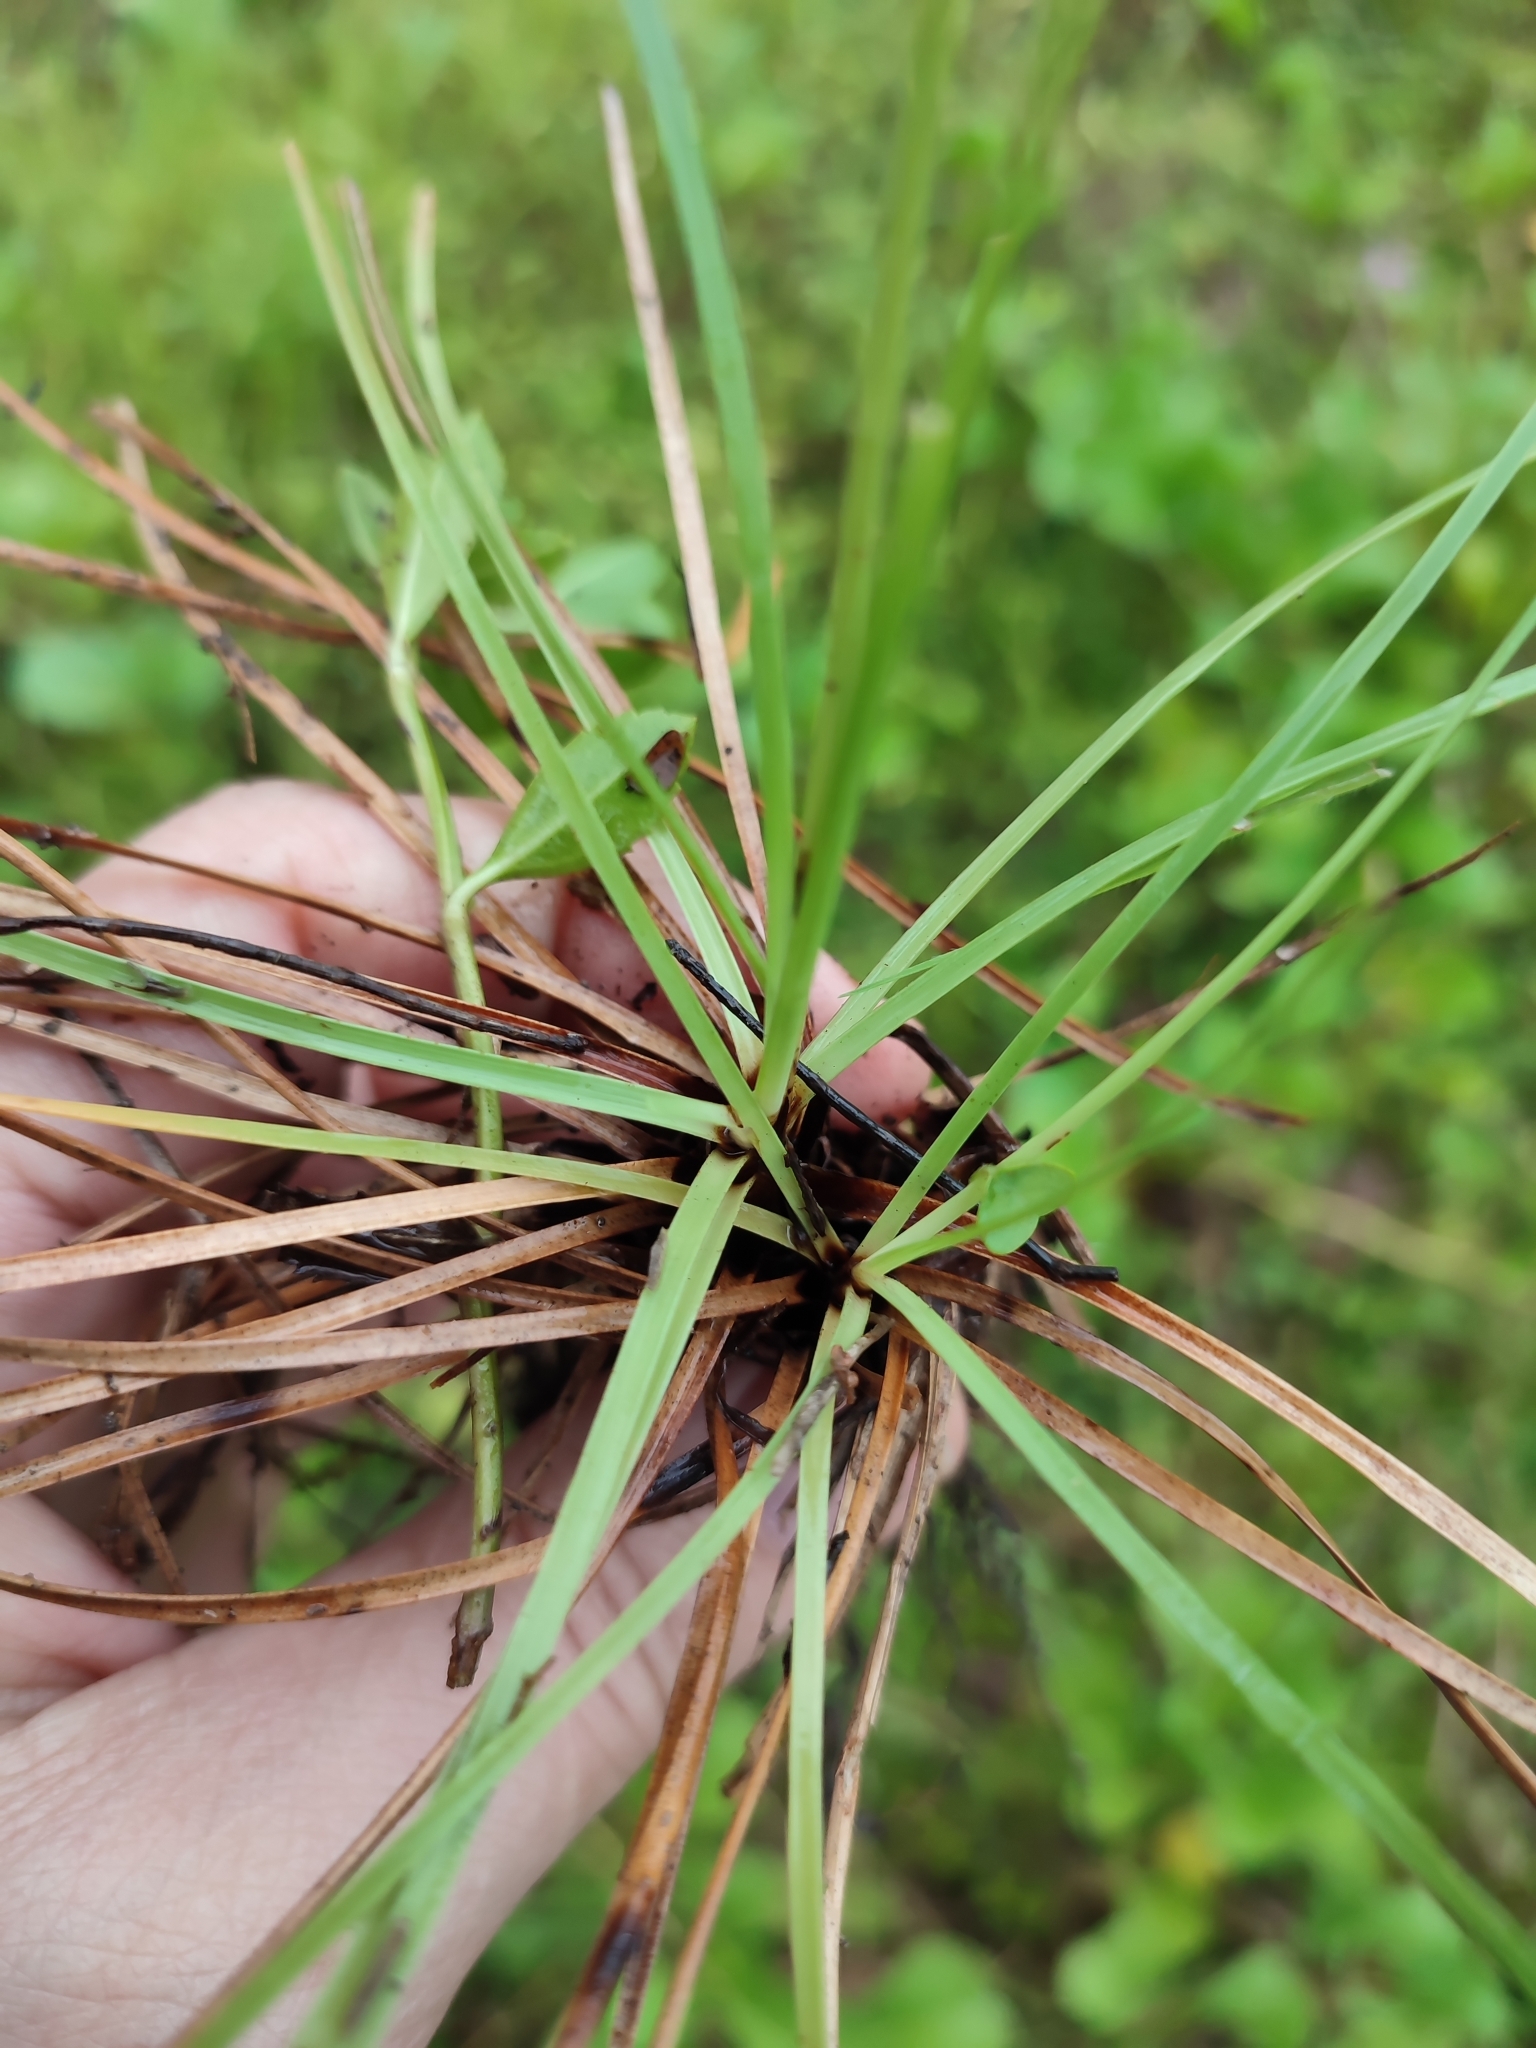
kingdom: Plantae
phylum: Tracheophyta
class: Liliopsida
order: Poales
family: Cyperaceae
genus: Fimbristylis
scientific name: Fimbristylis cymosa
